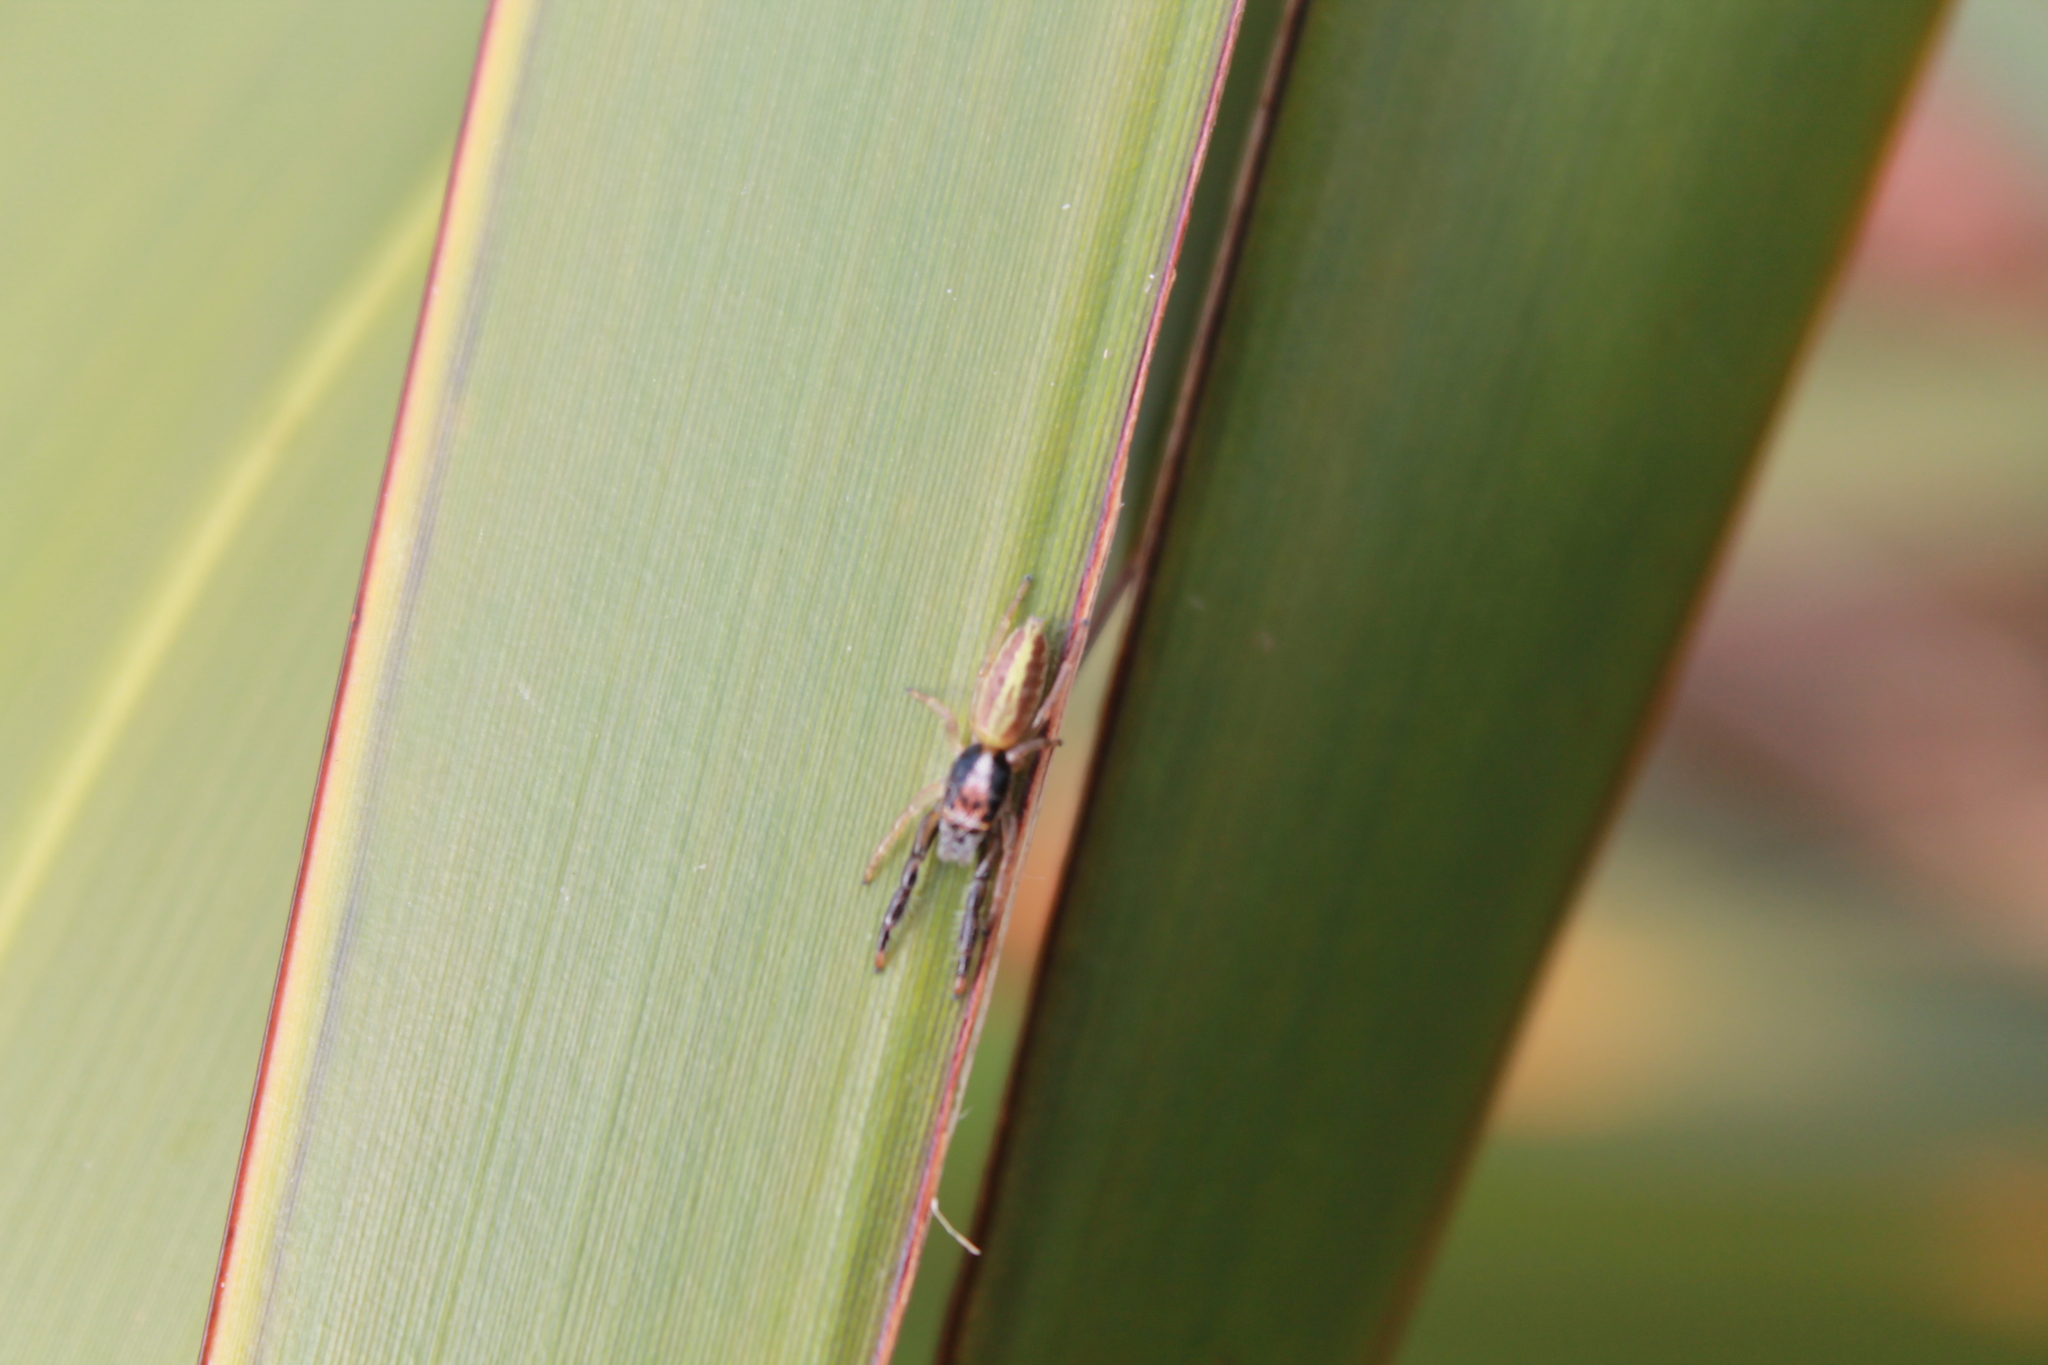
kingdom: Animalia
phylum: Arthropoda
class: Arachnida
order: Araneae
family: Salticidae
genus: Trite
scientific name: Trite planiceps
